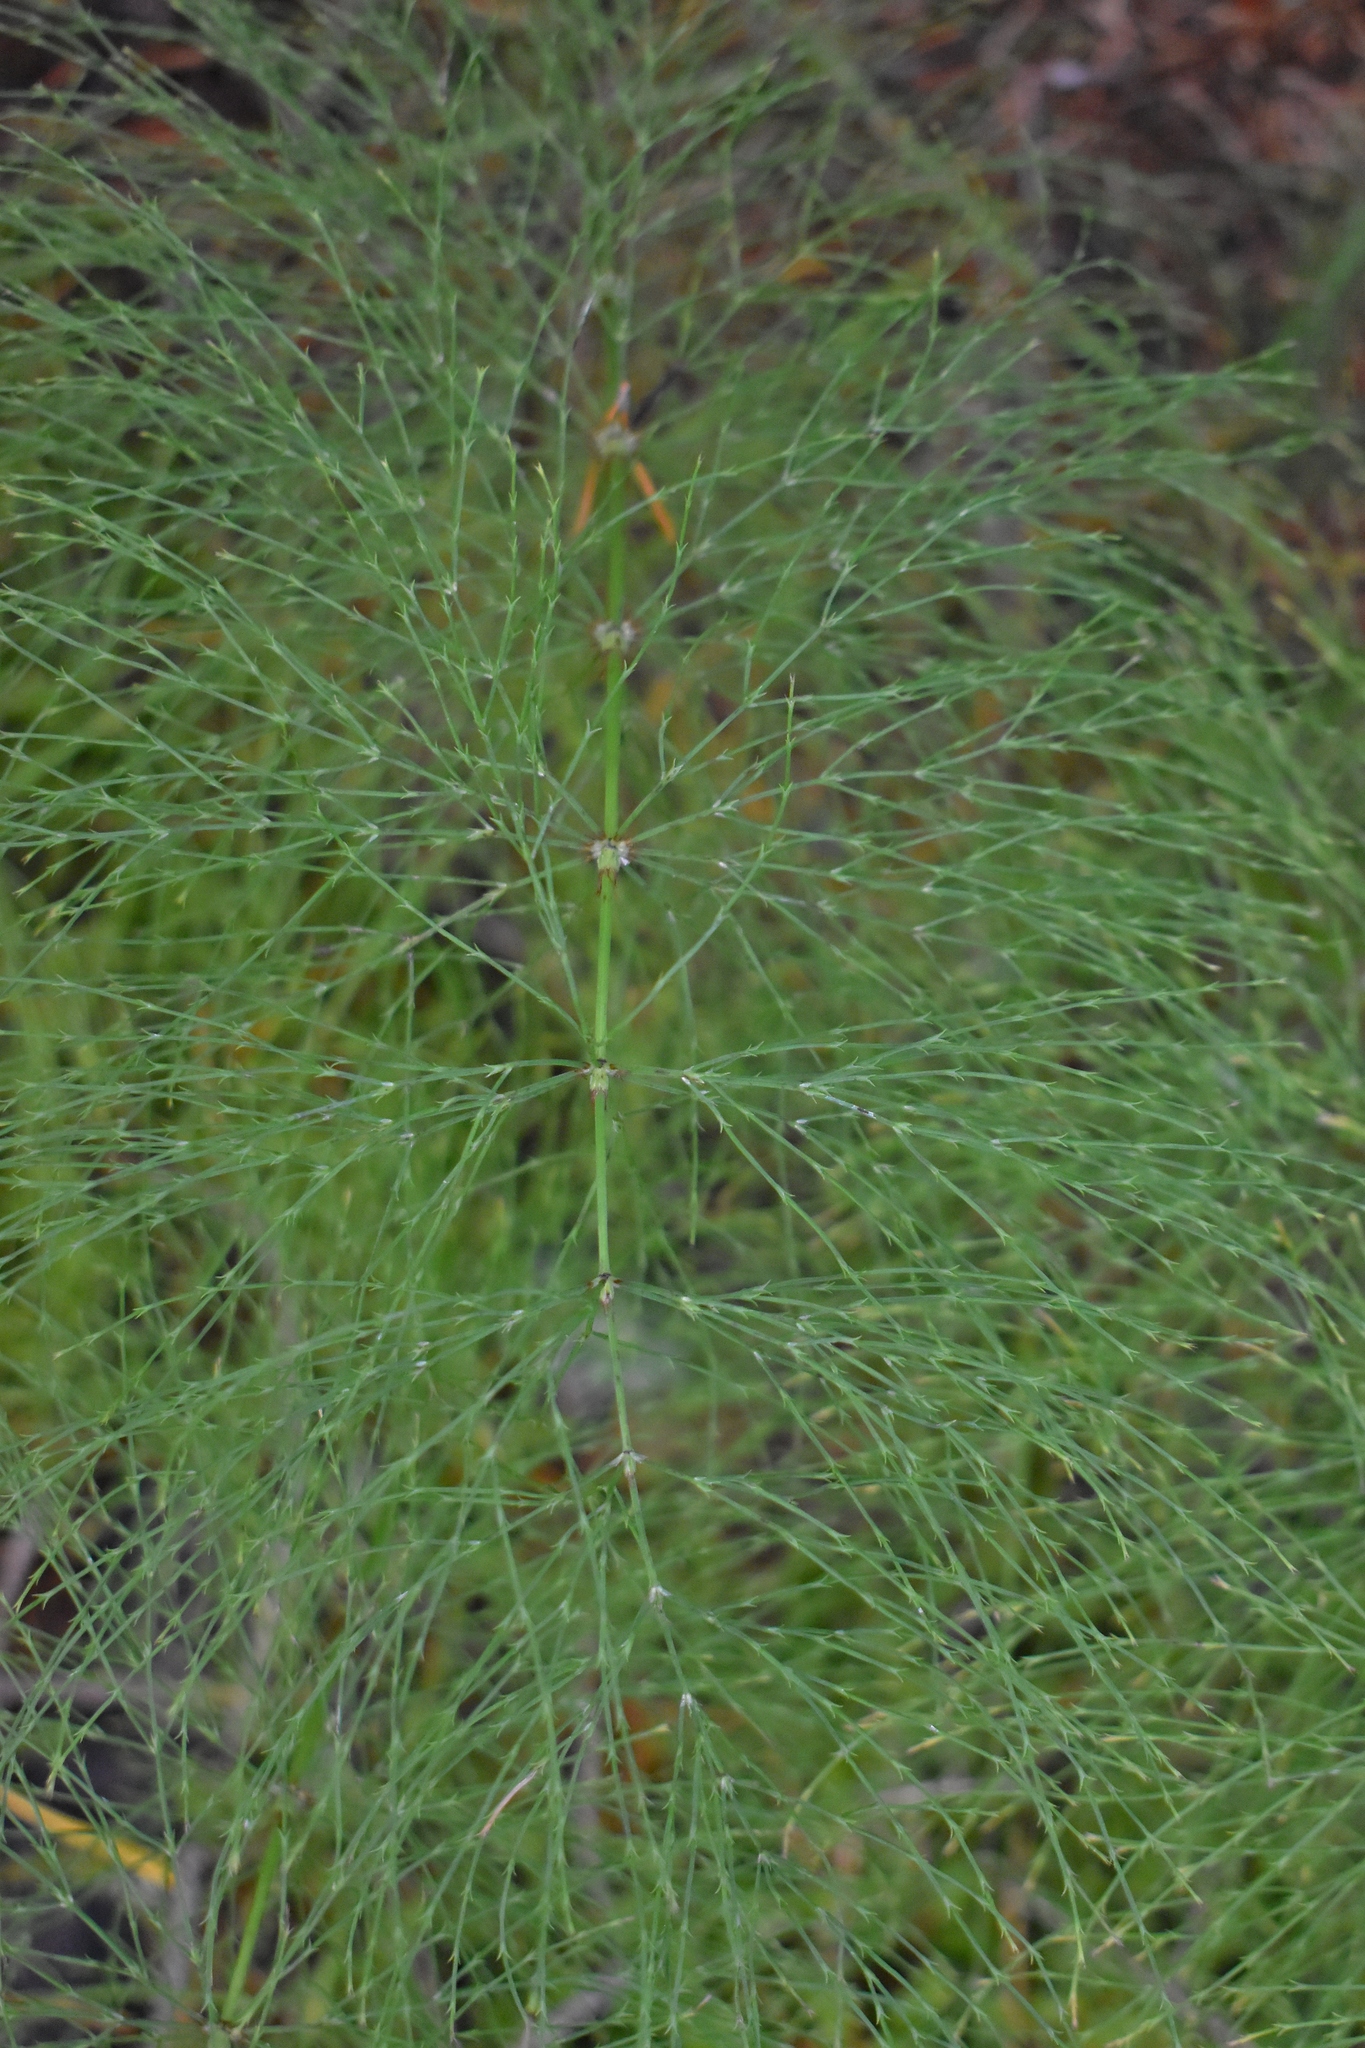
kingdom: Plantae
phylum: Tracheophyta
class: Polypodiopsida
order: Equisetales
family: Equisetaceae
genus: Equisetum
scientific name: Equisetum sylvaticum
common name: Wood horsetail
